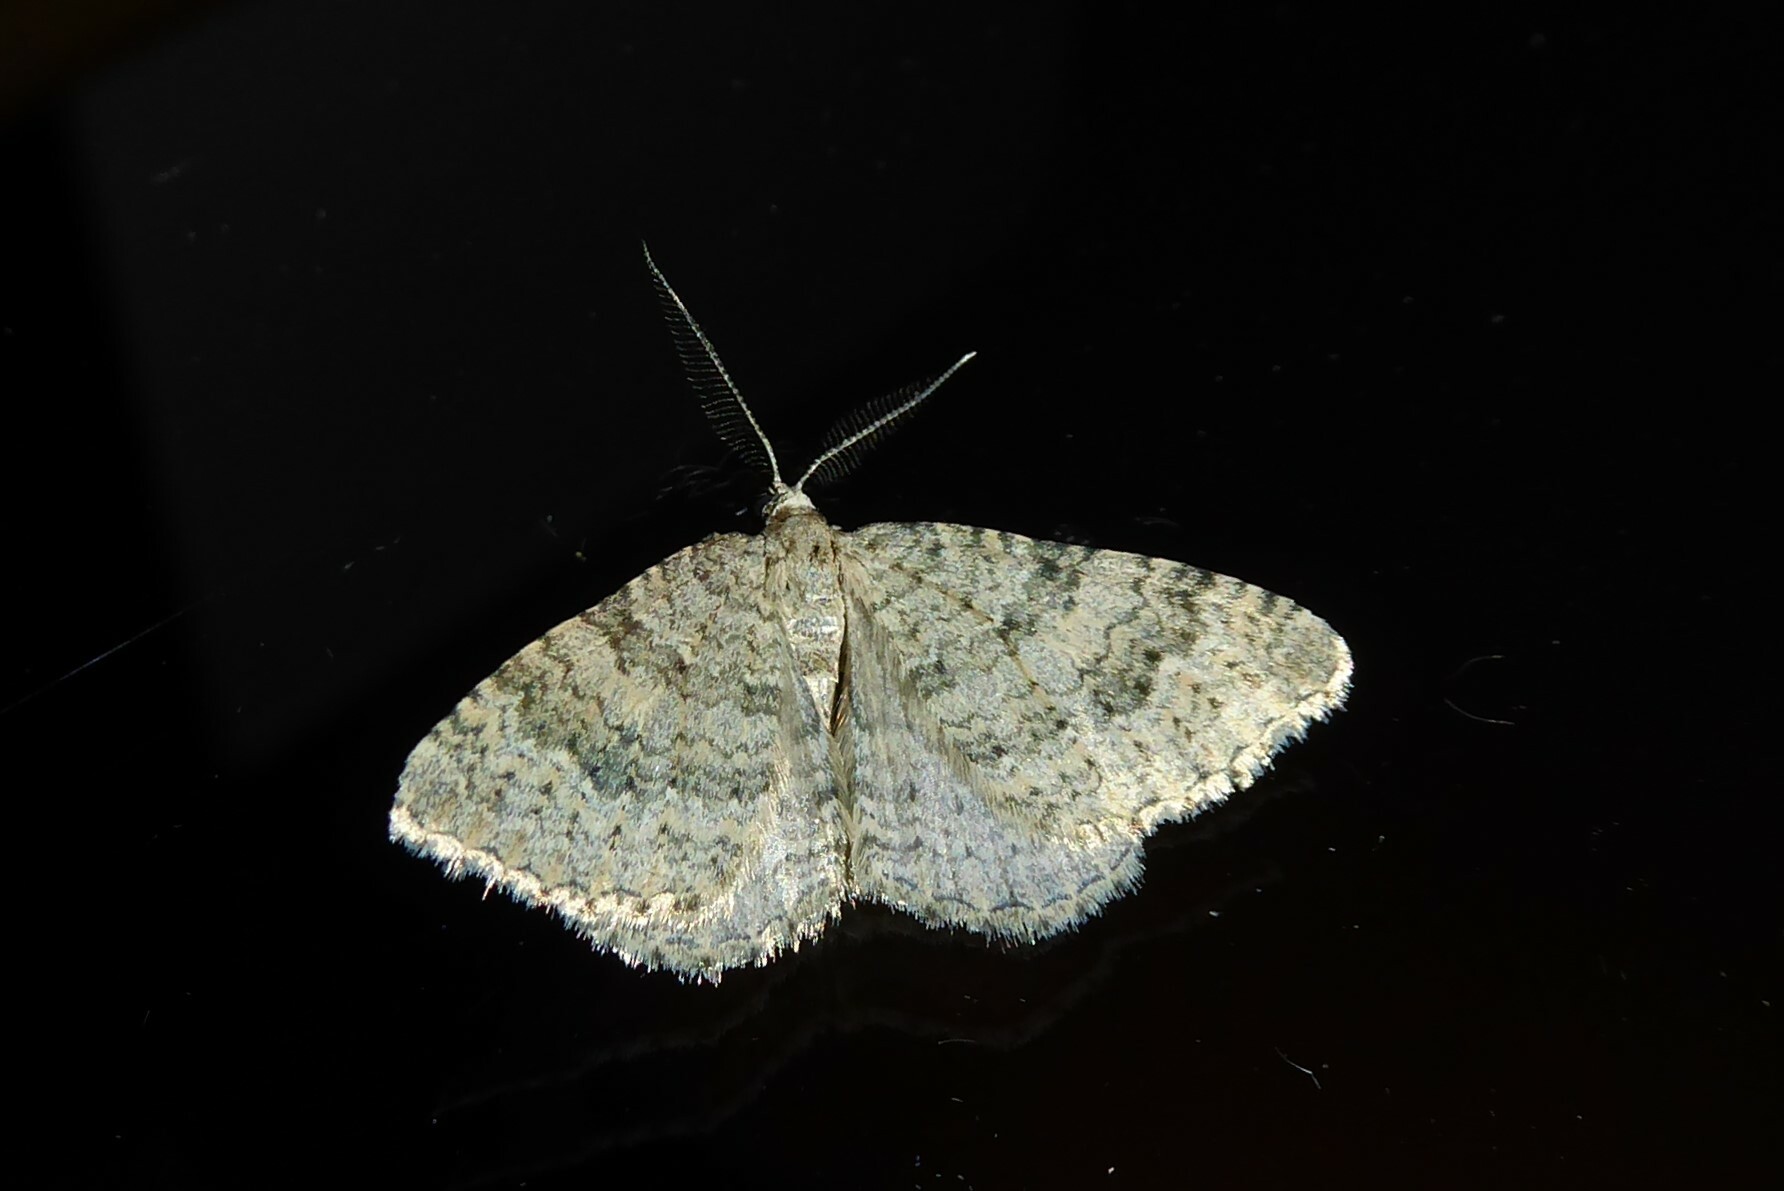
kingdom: Animalia
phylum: Arthropoda
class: Insecta
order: Lepidoptera
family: Geometridae
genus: Helastia
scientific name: Helastia corcularia
